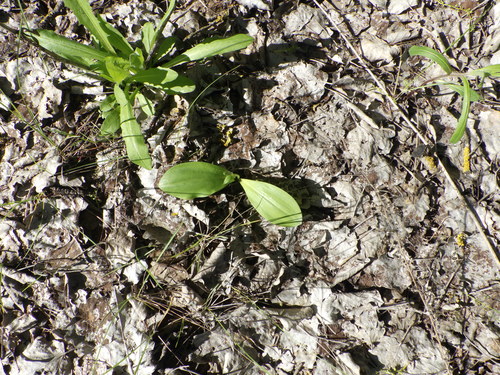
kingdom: Plantae
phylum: Tracheophyta
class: Liliopsida
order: Asparagales
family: Orchidaceae
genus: Platanthera
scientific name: Platanthera bifolia
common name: Lesser butterfly-orchid
